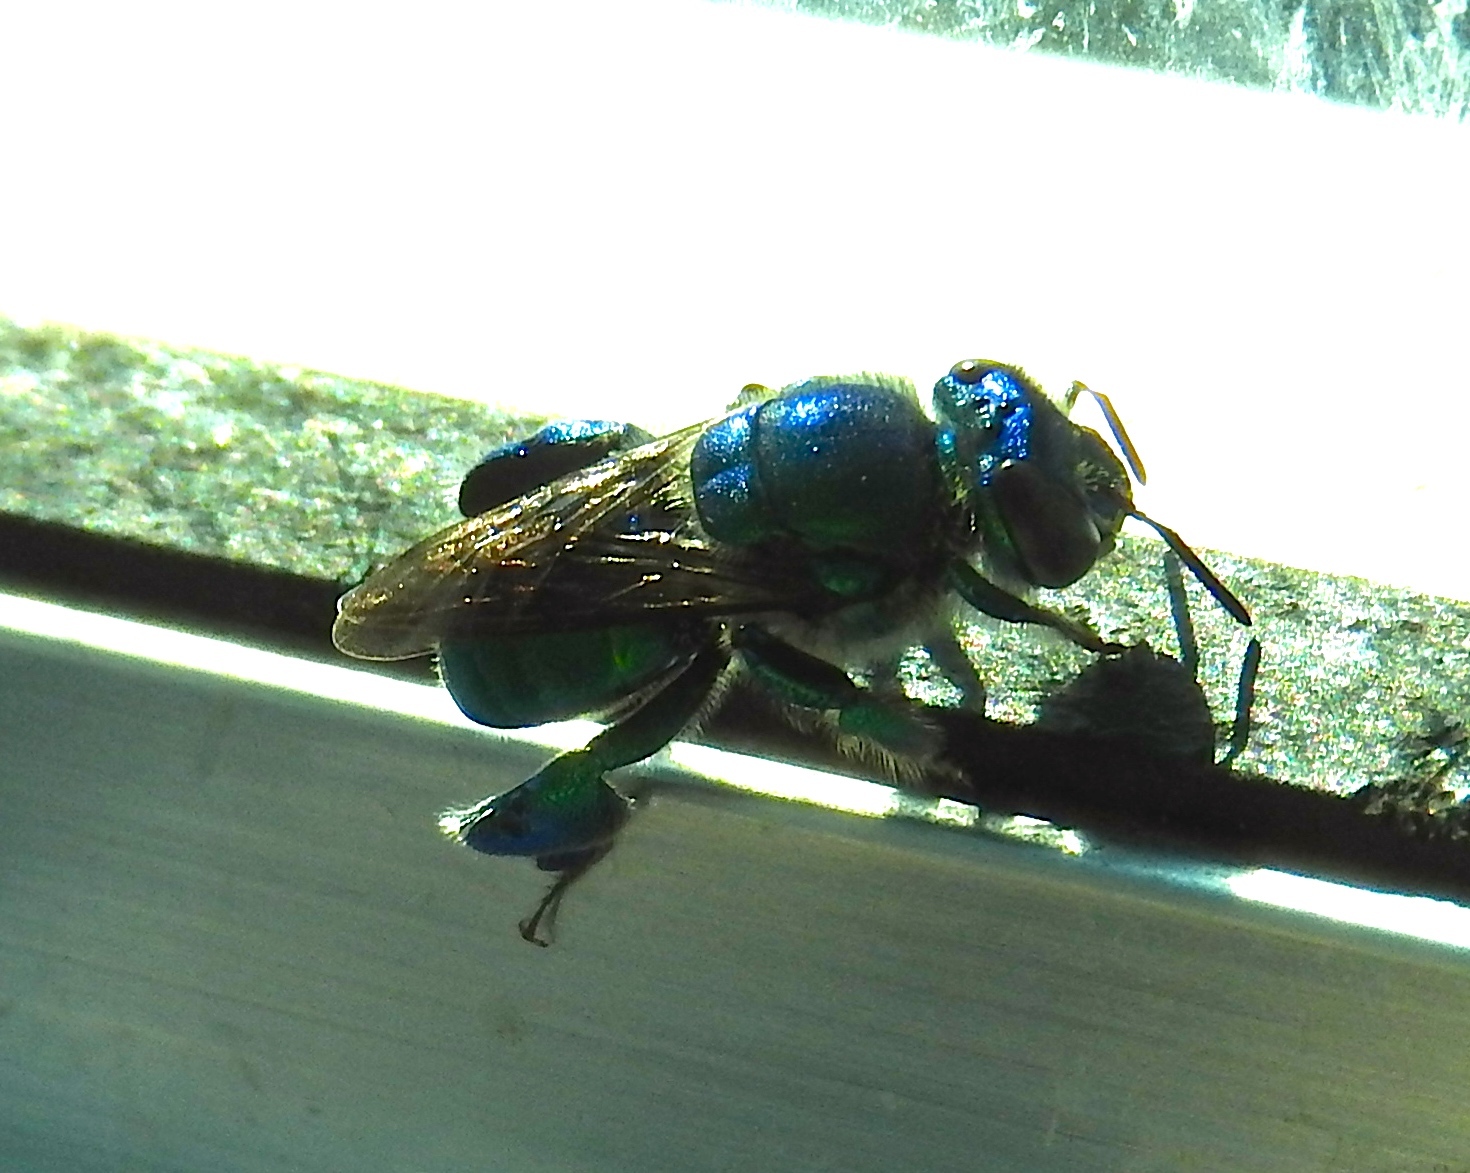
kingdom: Animalia
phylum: Arthropoda
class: Insecta
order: Hymenoptera
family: Apidae
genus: Euglossa
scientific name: Euglossa
